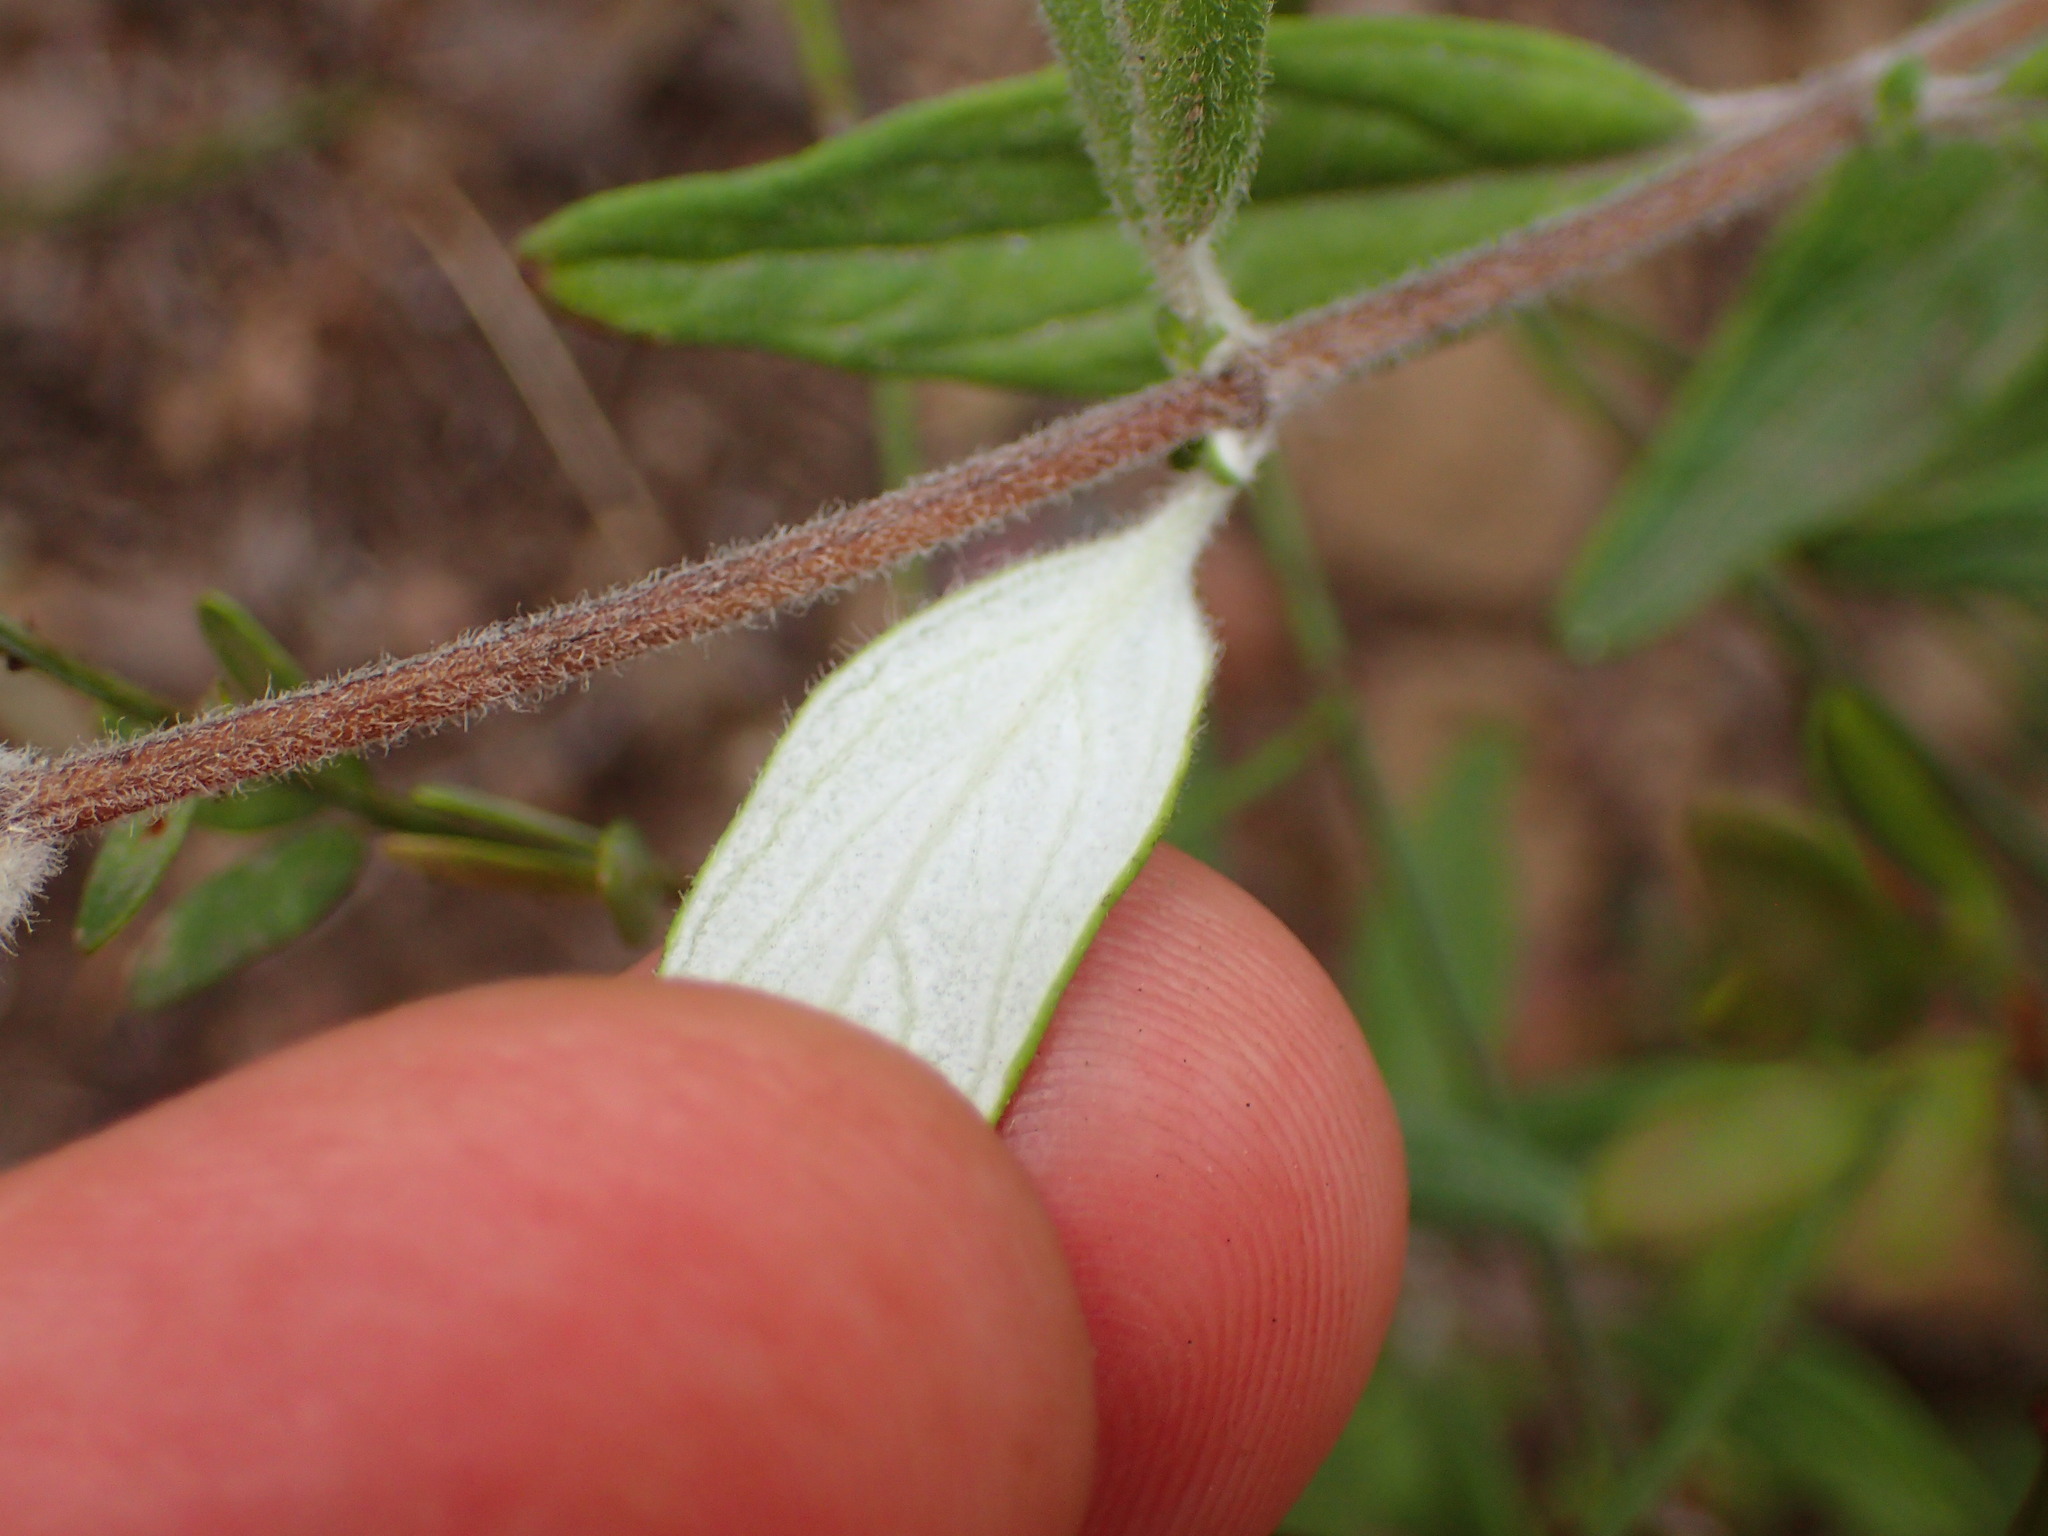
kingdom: Plantae
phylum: Tracheophyta
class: Magnoliopsida
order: Lamiales
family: Lamiaceae
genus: Monardella
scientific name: Monardella hypoleuca
